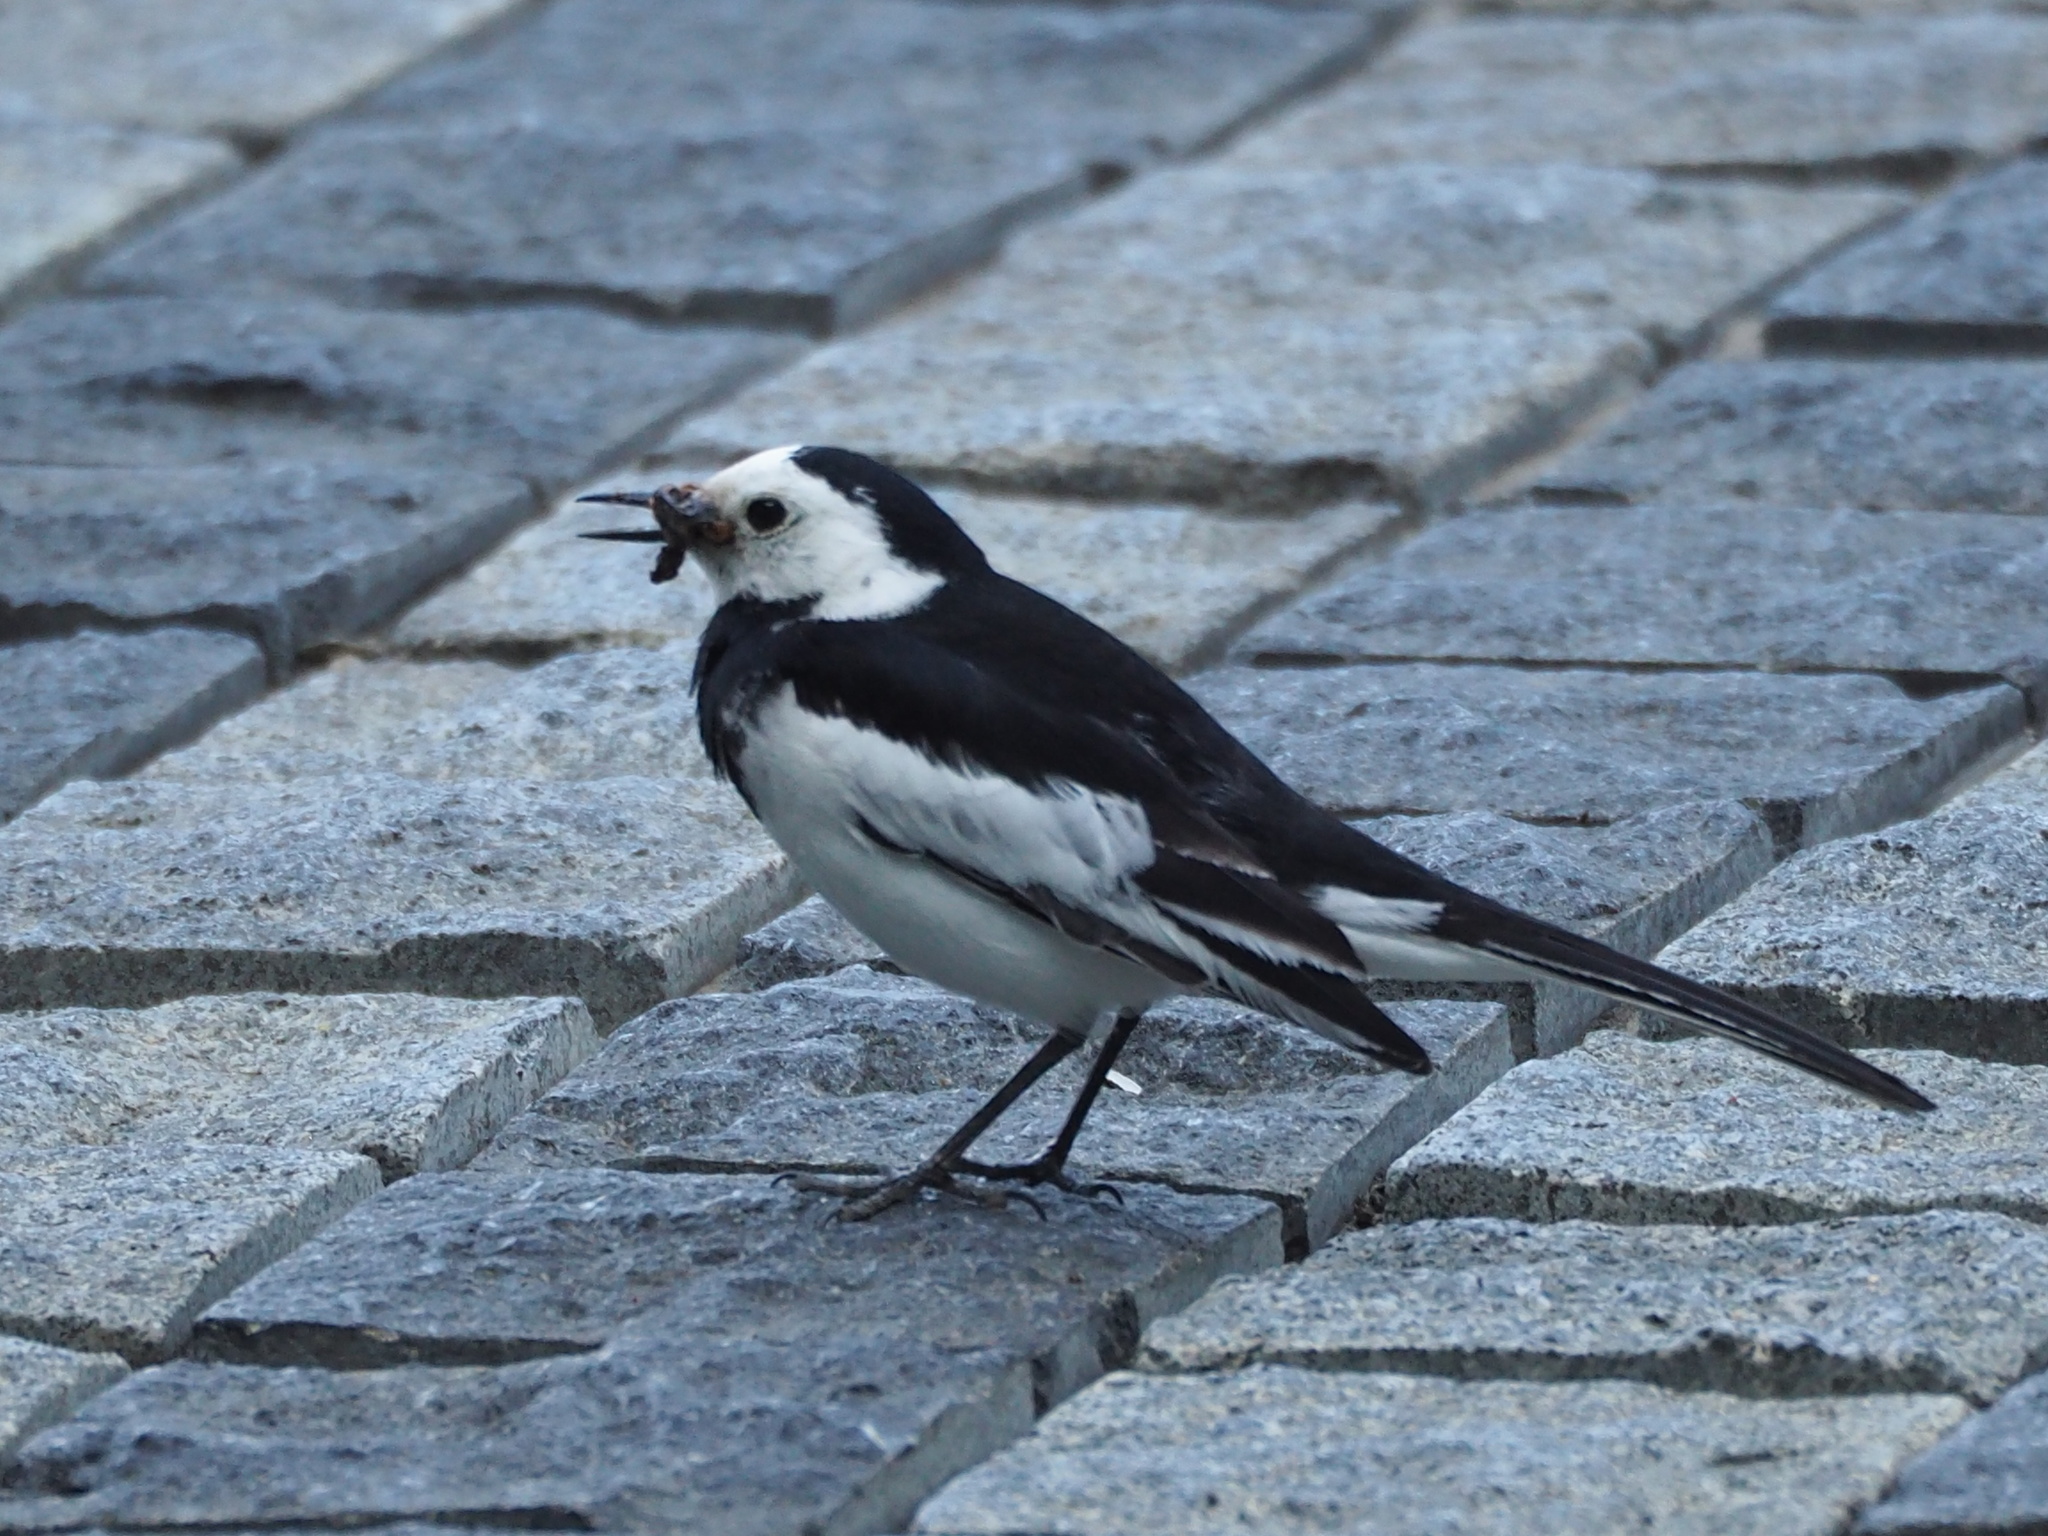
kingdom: Animalia
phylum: Chordata
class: Aves
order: Passeriformes
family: Motacillidae
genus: Motacilla
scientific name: Motacilla alba
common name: White wagtail
